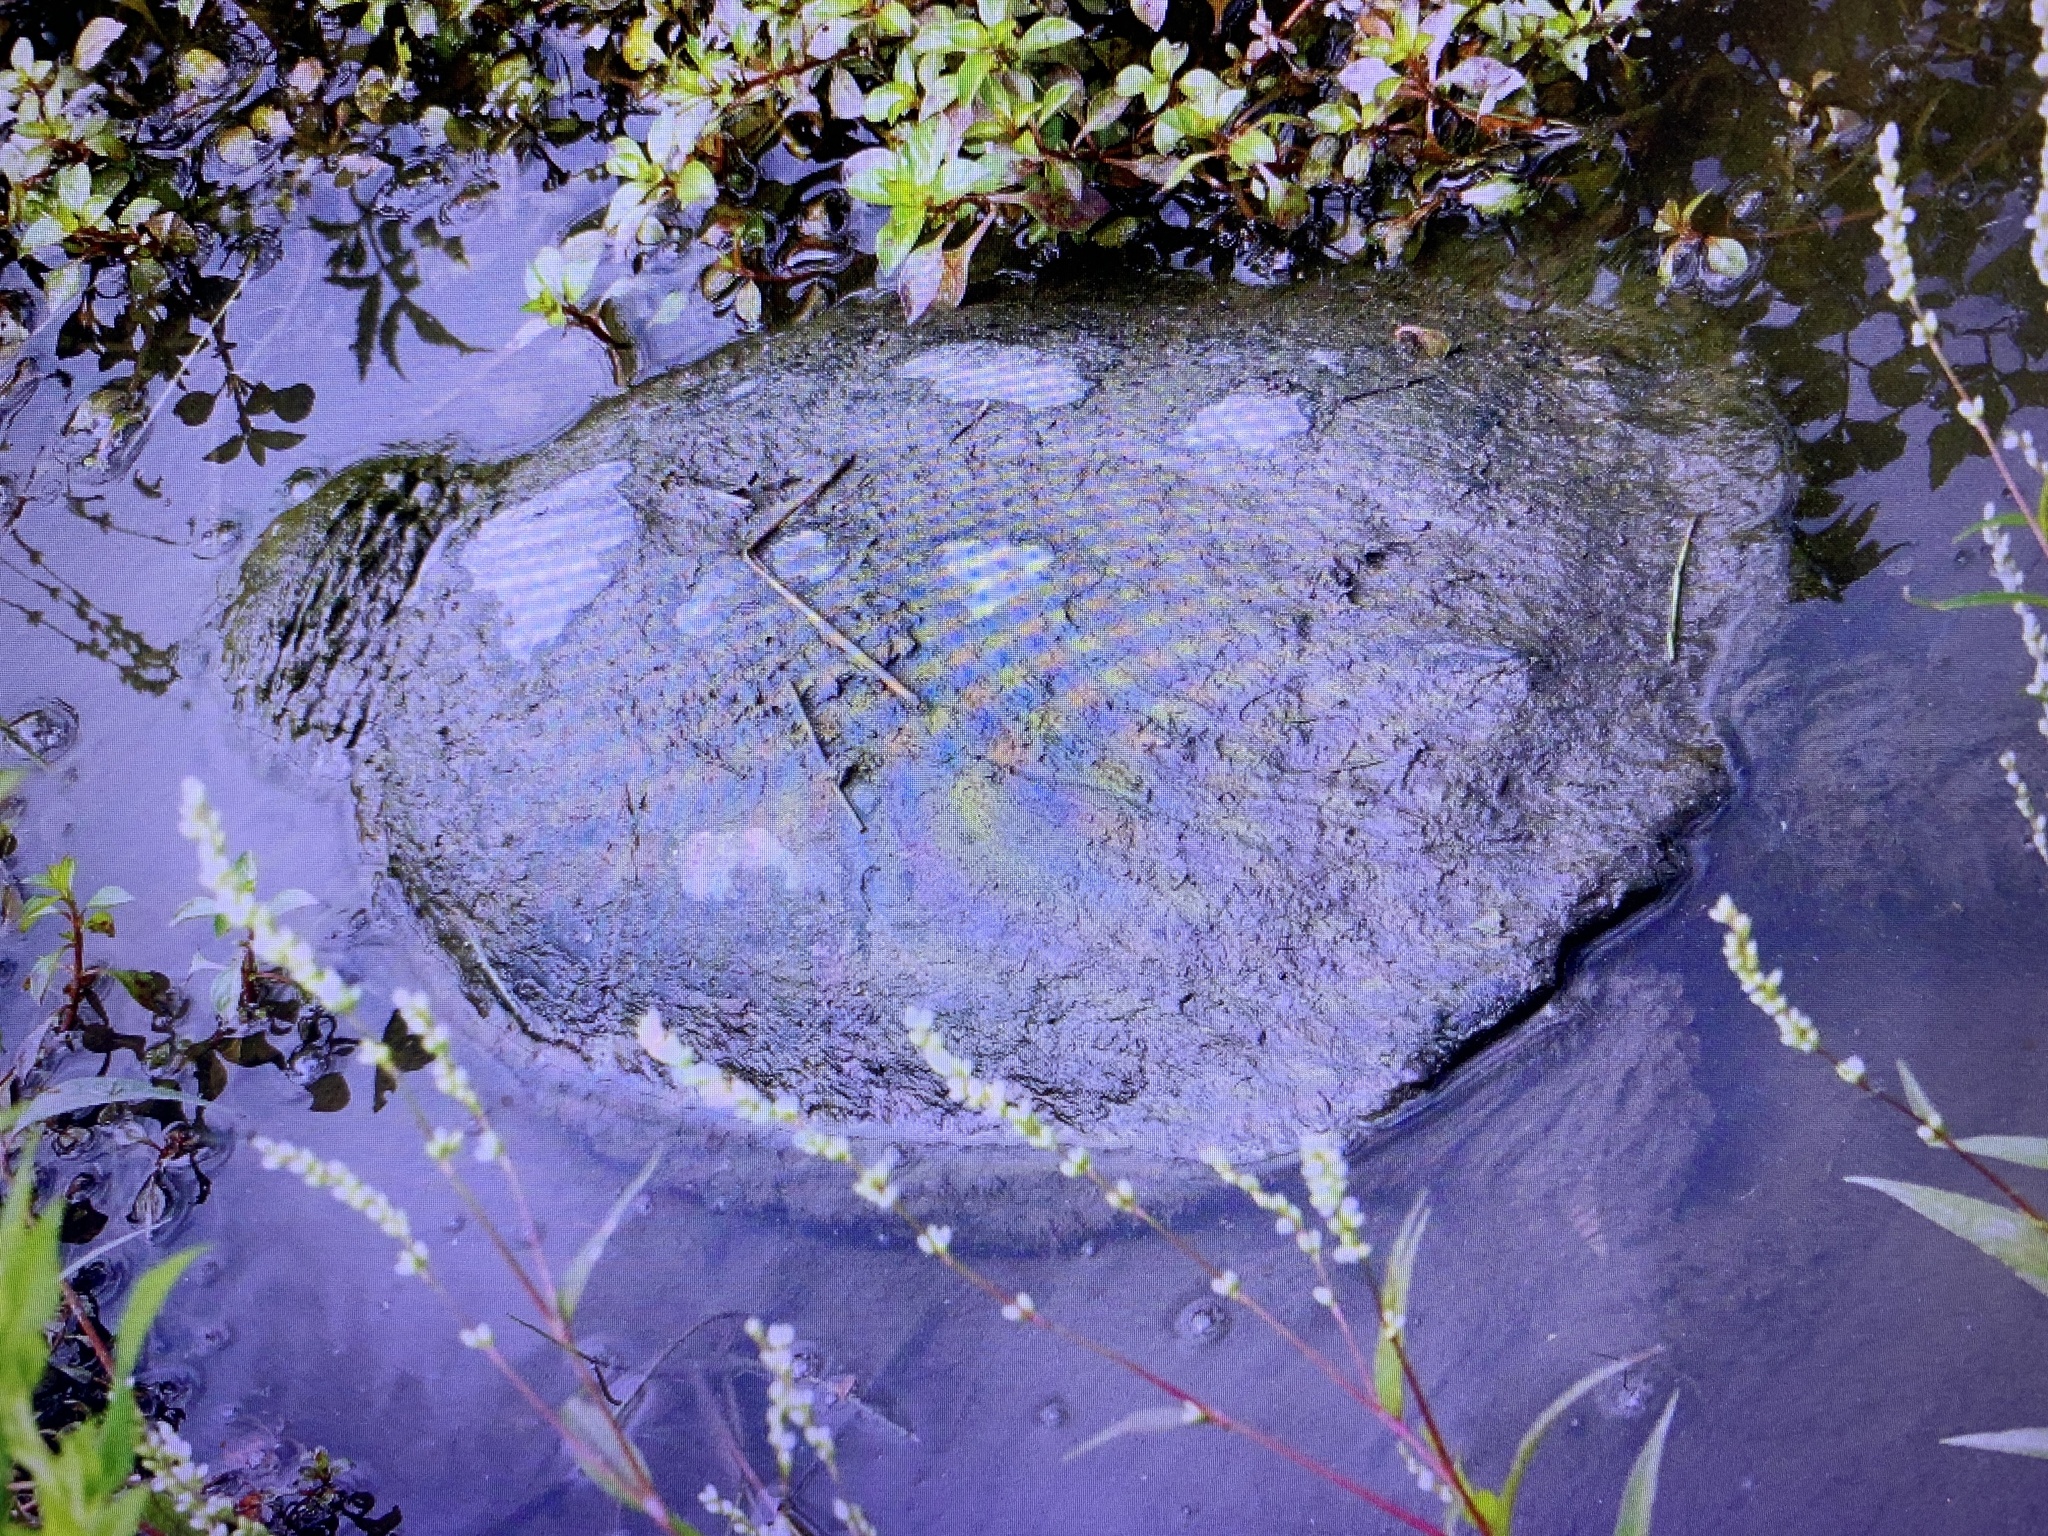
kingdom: Animalia
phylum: Chordata
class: Testudines
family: Chelydridae
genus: Chelydra
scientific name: Chelydra serpentina
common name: Common snapping turtle
